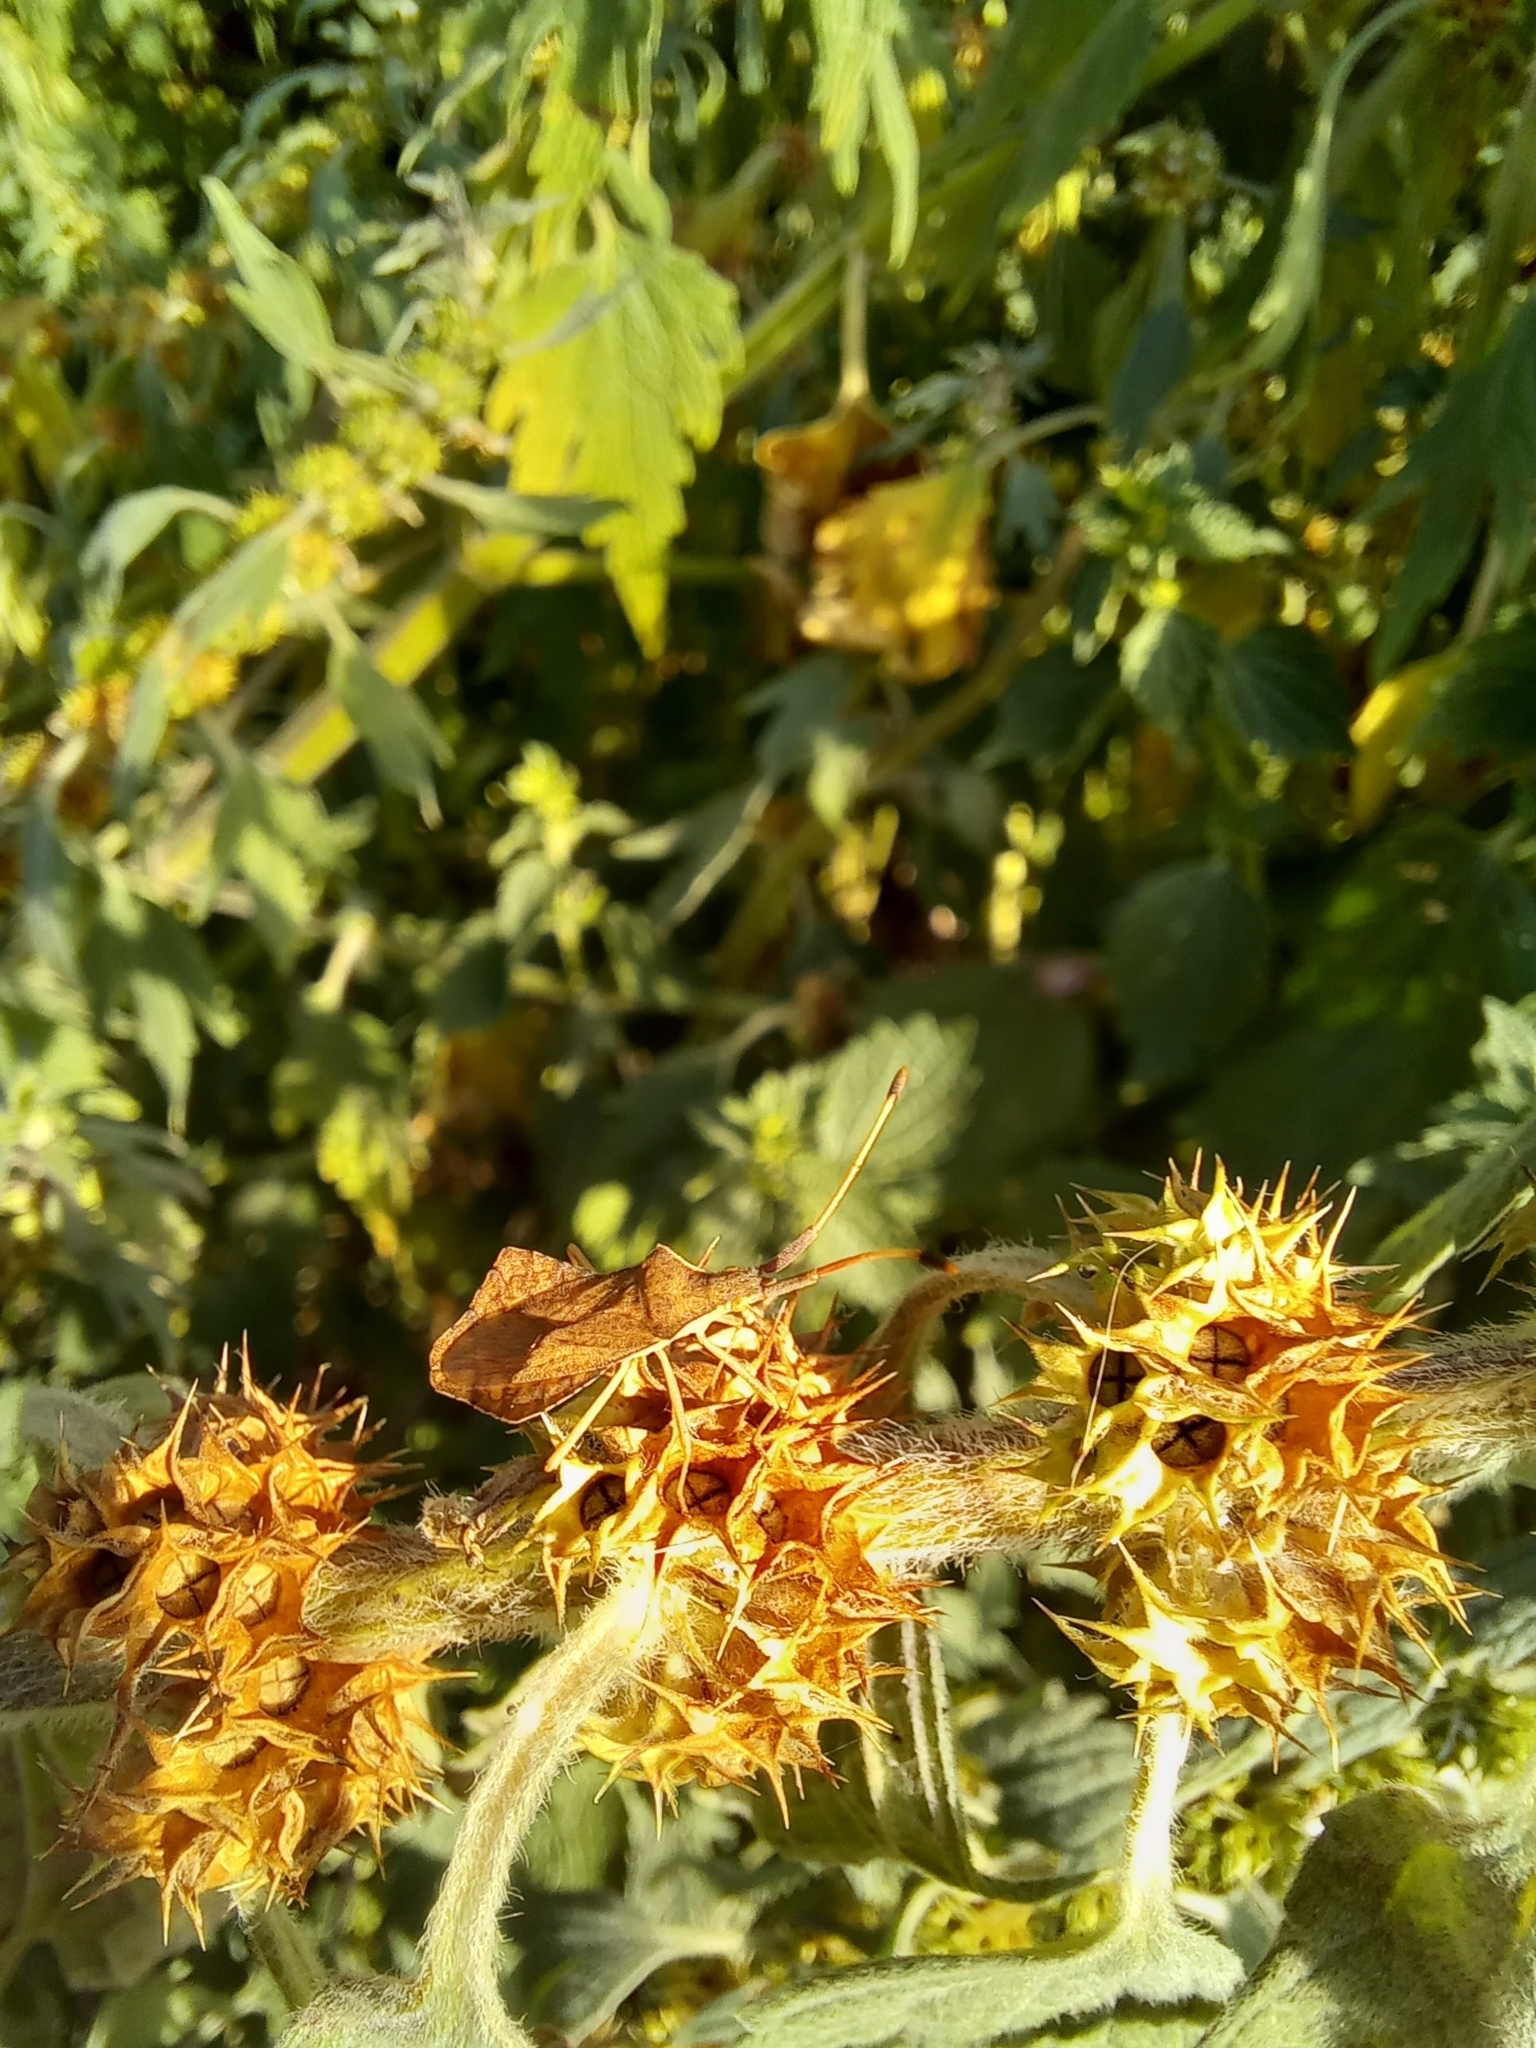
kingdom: Animalia
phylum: Arthropoda
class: Insecta
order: Hemiptera
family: Coreidae
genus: Syromastus
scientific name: Syromastus rhombeus
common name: Rhombic leatherbug
